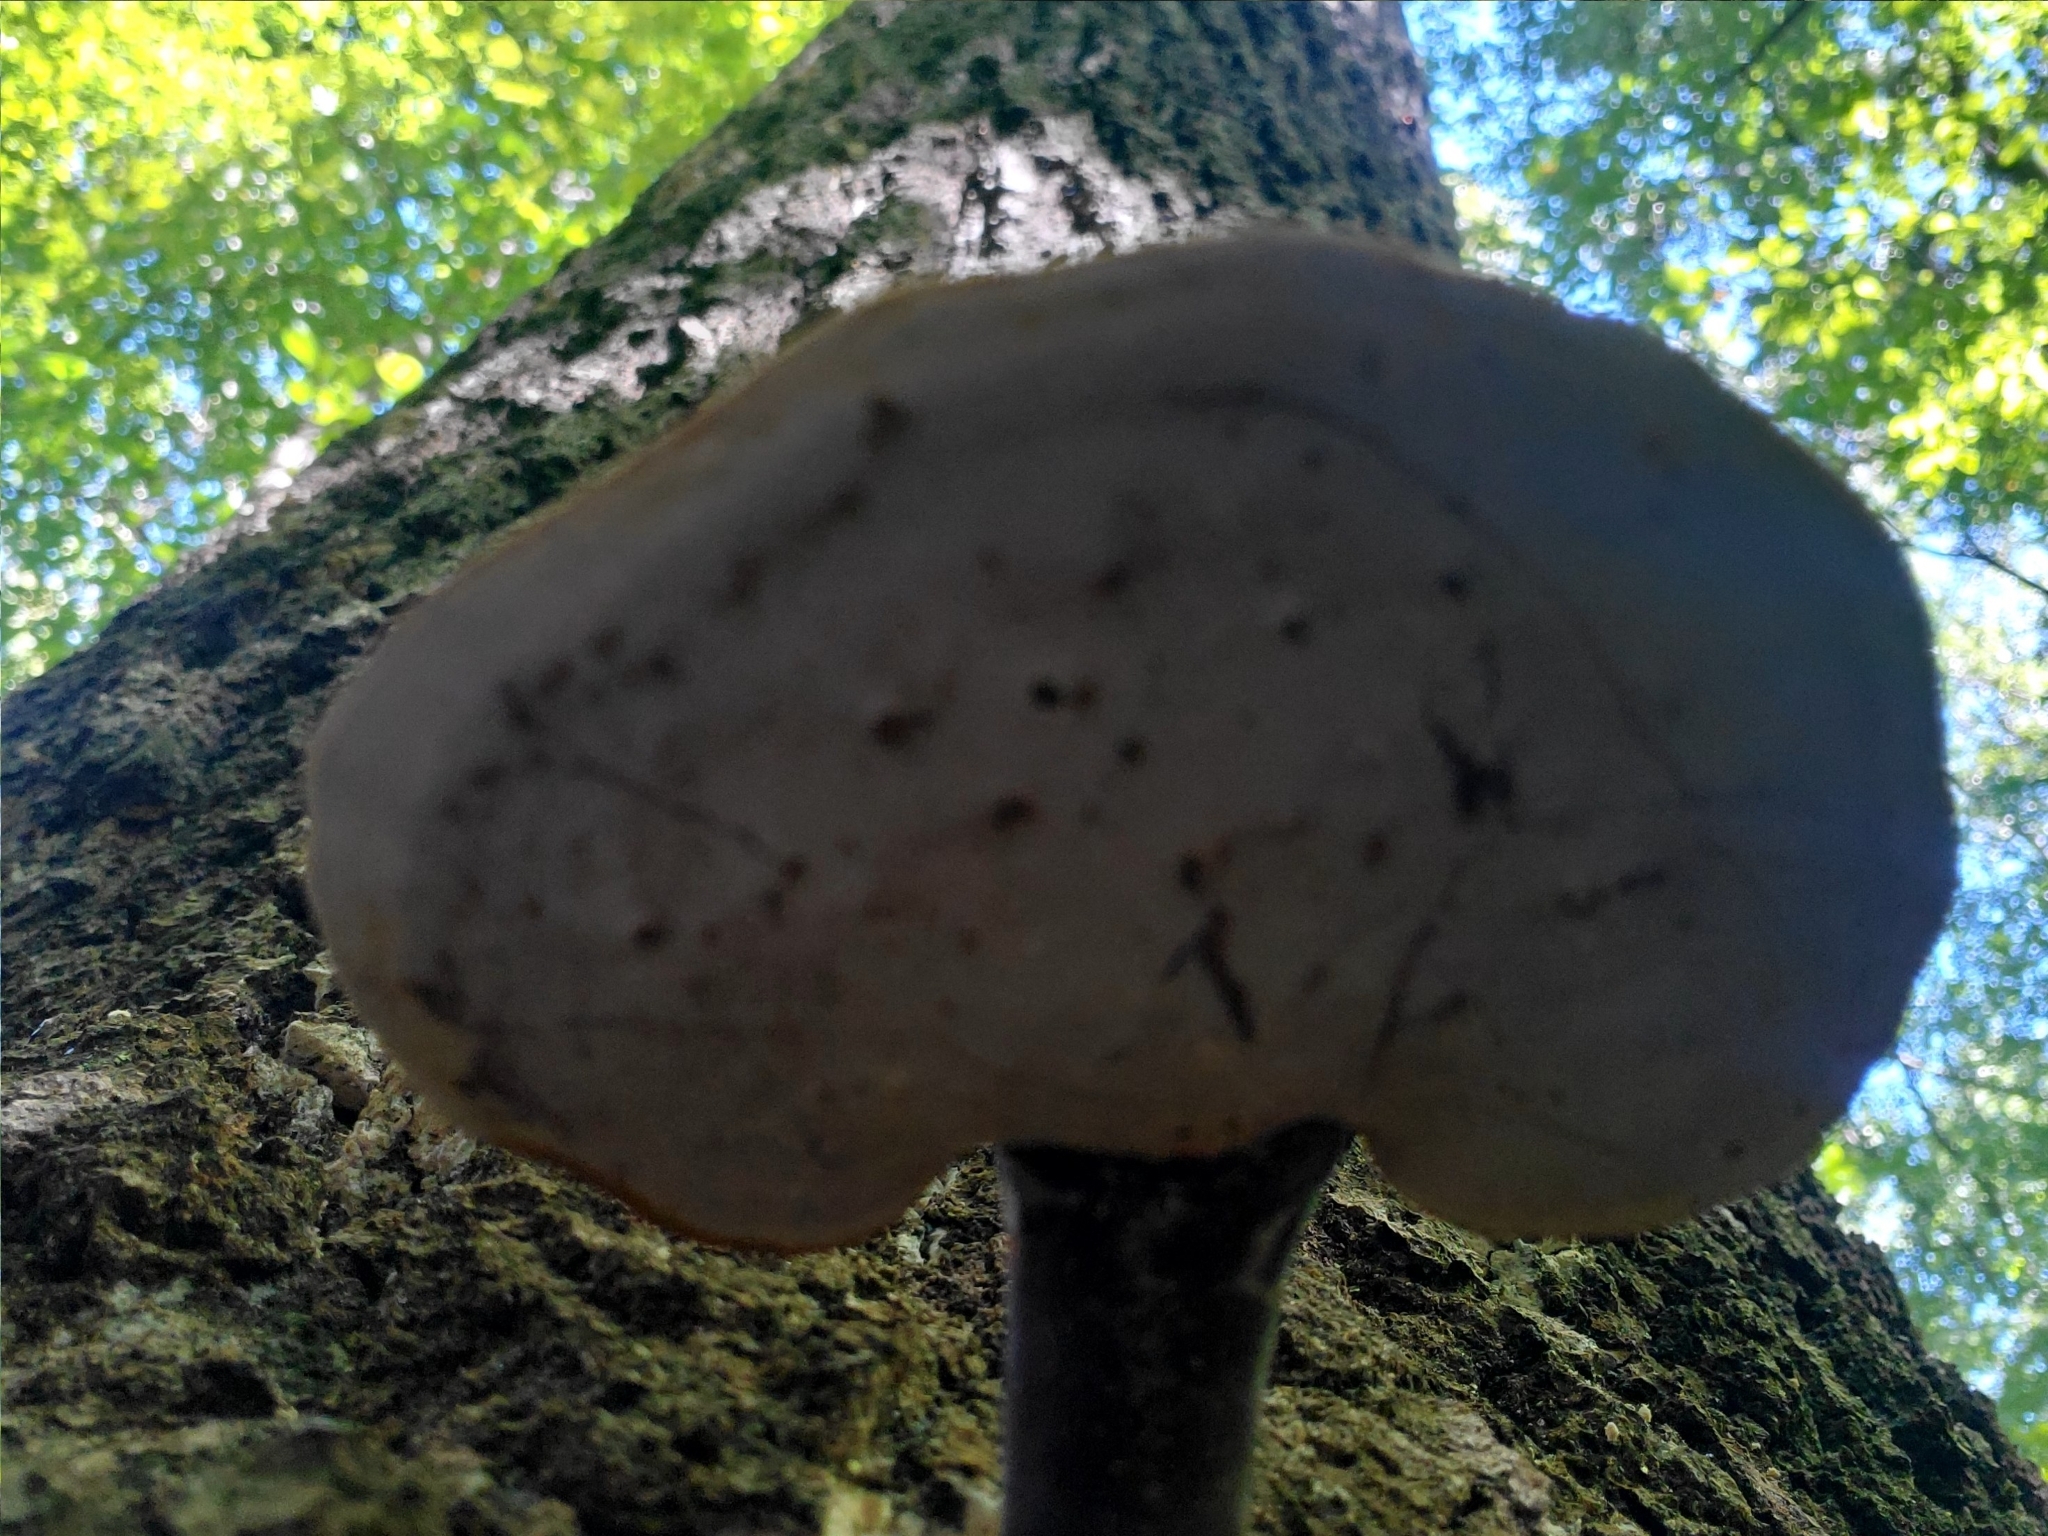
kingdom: Fungi
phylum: Basidiomycota
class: Agaricomycetes
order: Polyporales
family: Polyporaceae
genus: Ganoderma
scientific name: Ganoderma curtisii
